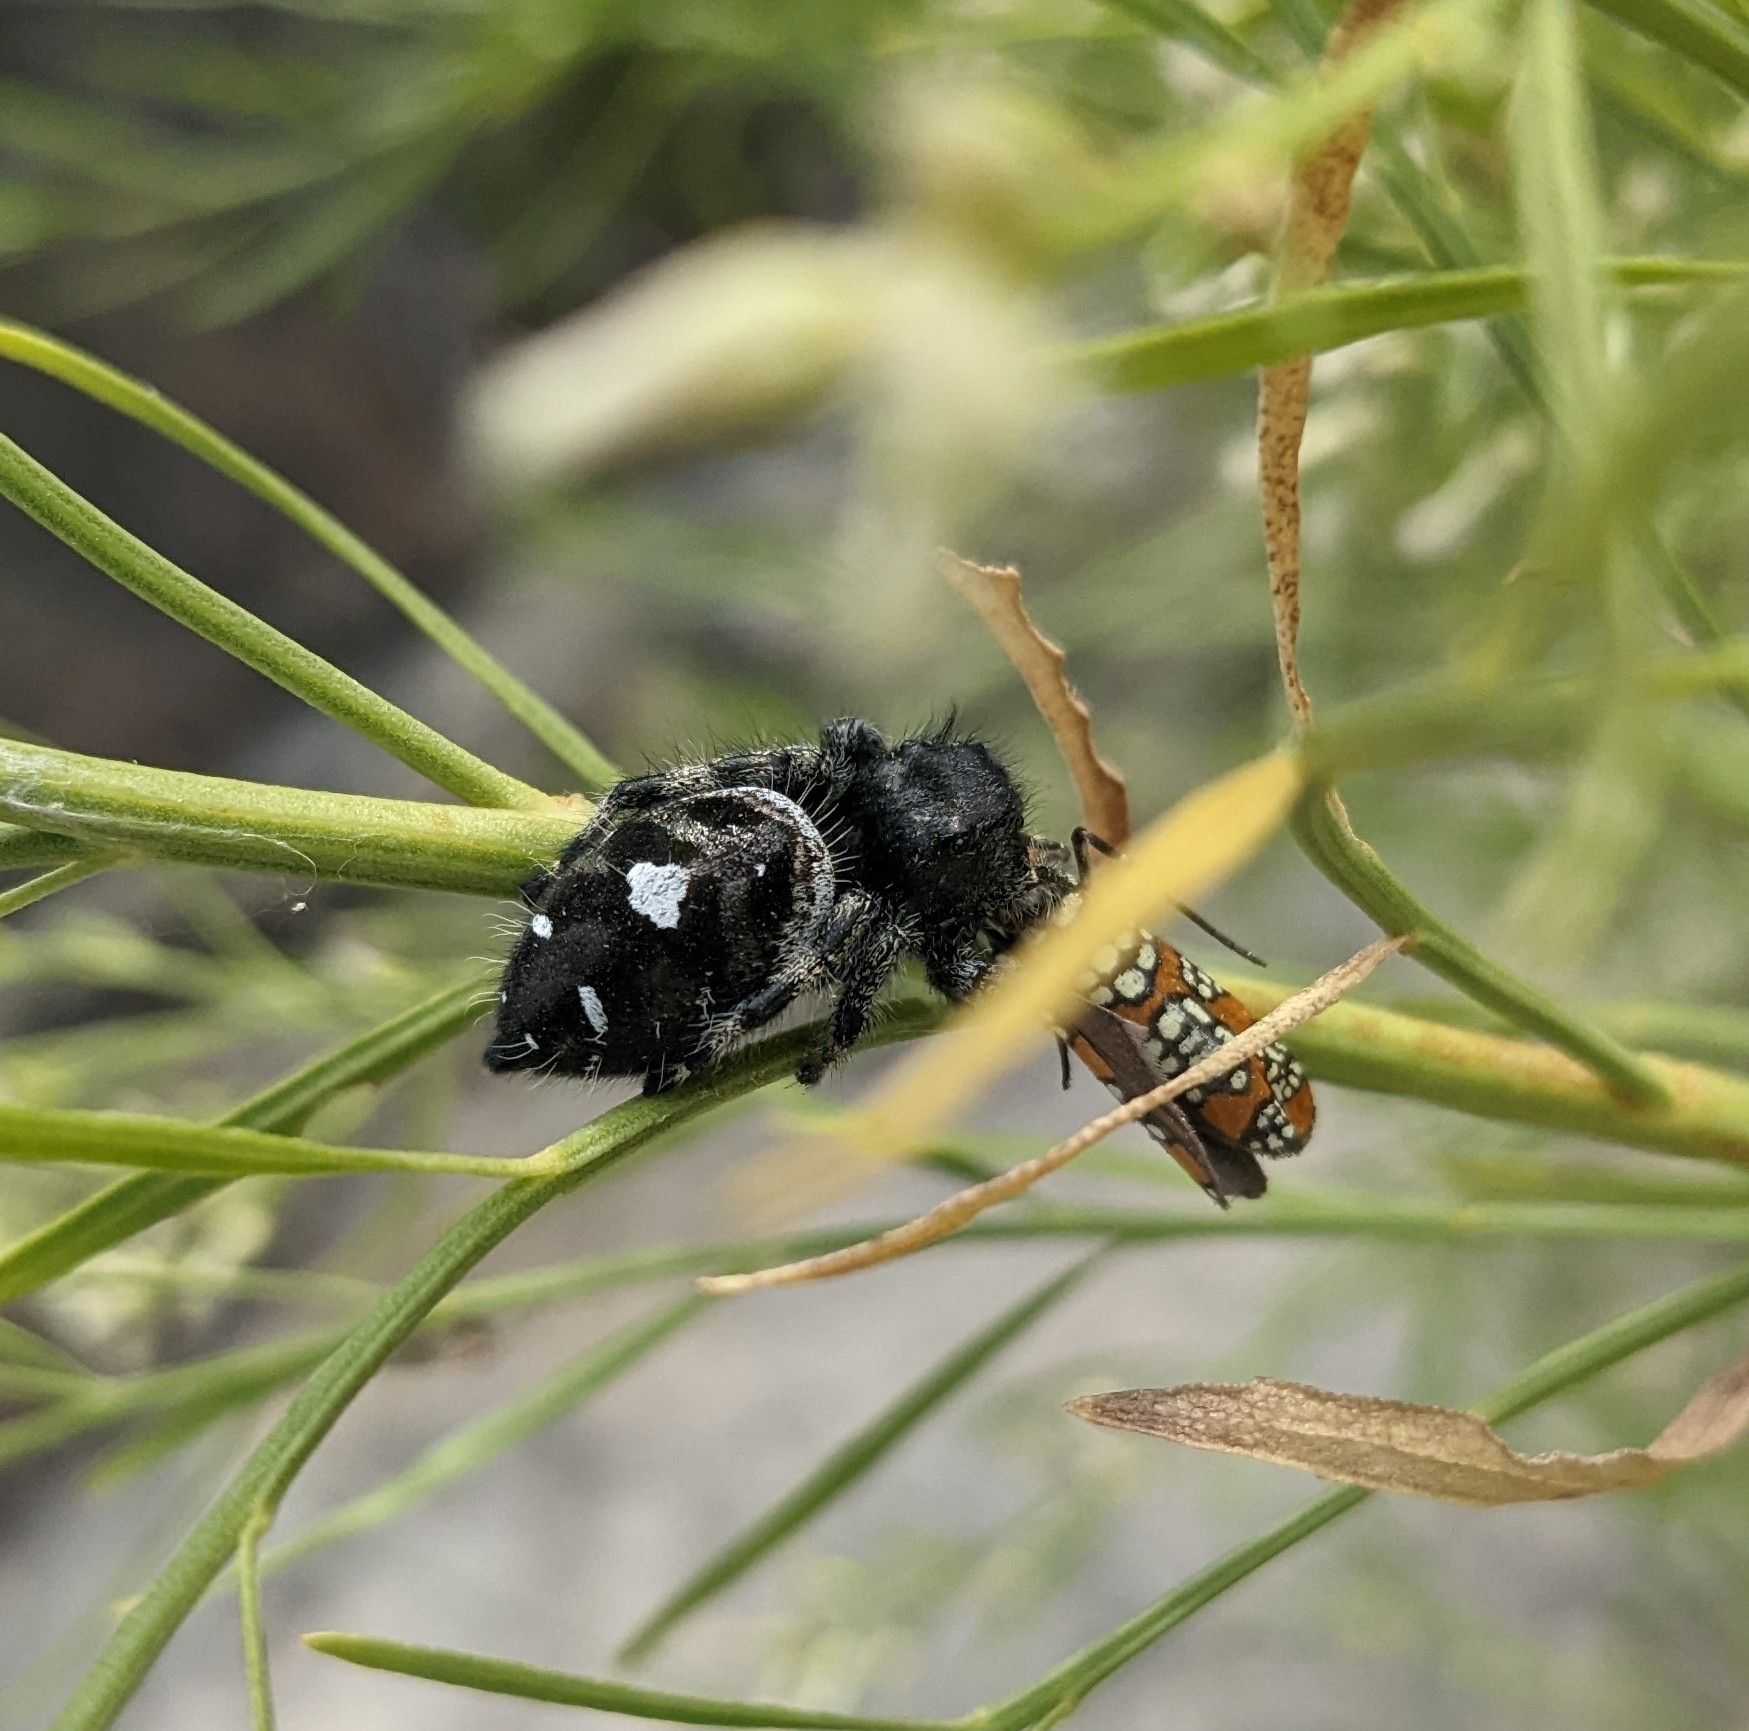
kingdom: Animalia
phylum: Arthropoda
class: Arachnida
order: Araneae
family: Salticidae
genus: Phidippus
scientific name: Phidippus audax
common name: Bold jumper
